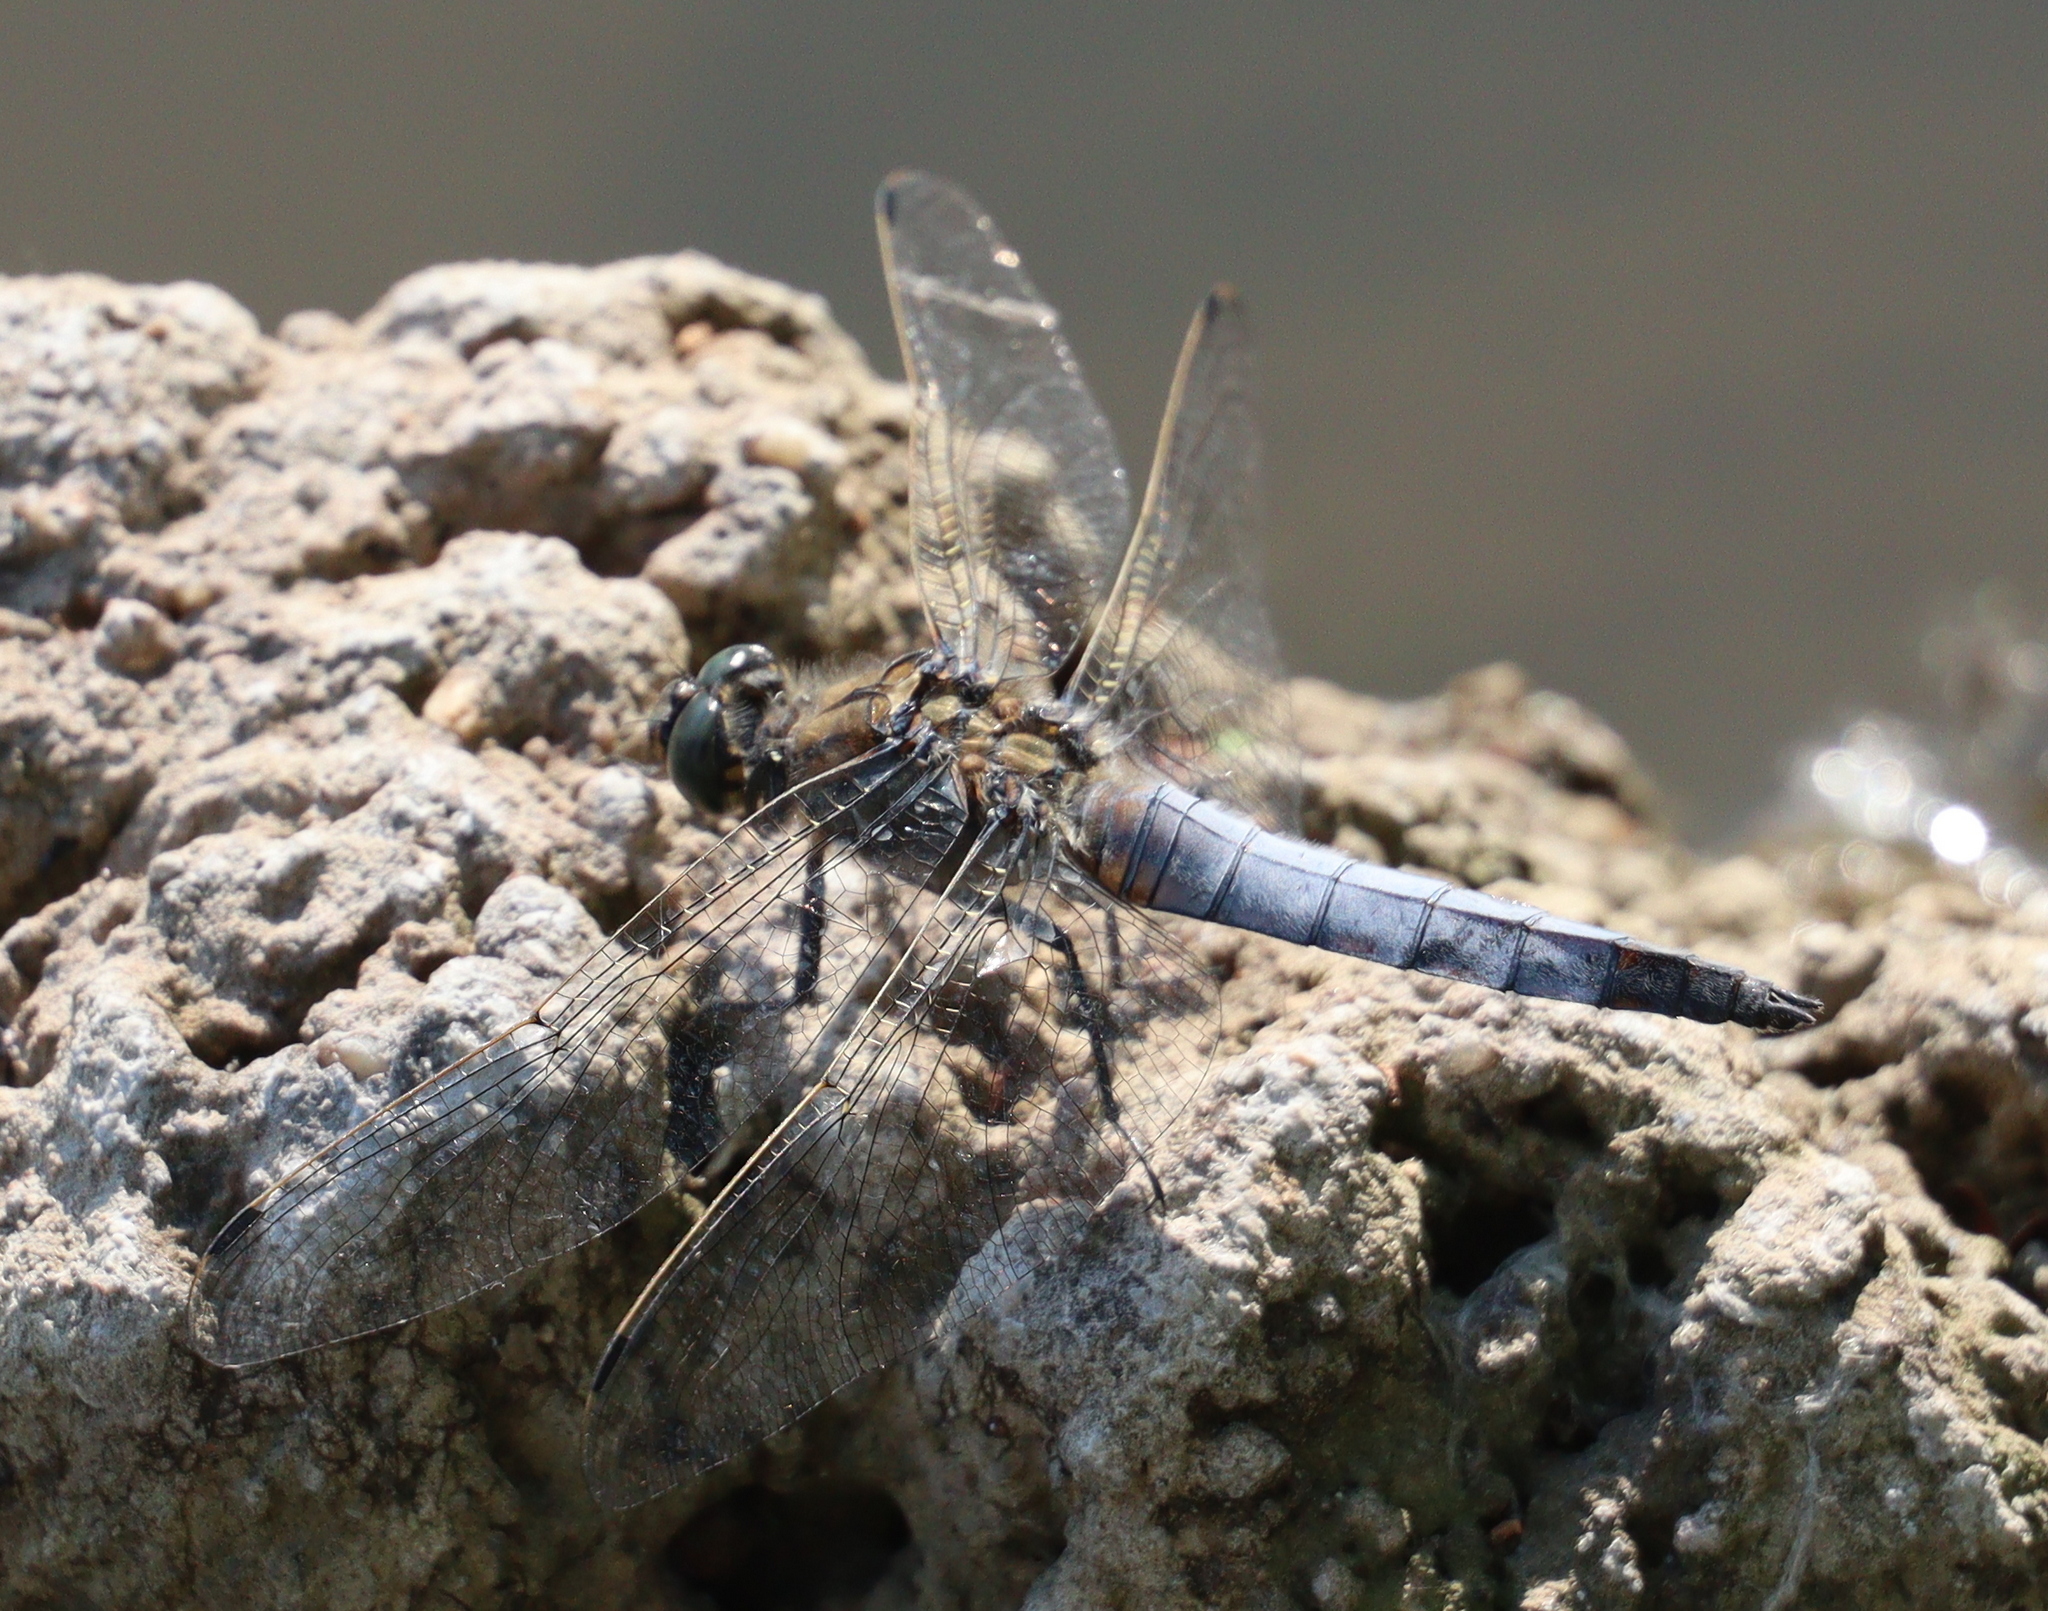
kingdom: Animalia
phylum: Arthropoda
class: Insecta
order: Odonata
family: Libellulidae
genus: Orthetrum
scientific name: Orthetrum cancellatum
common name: Black-tailed skimmer
